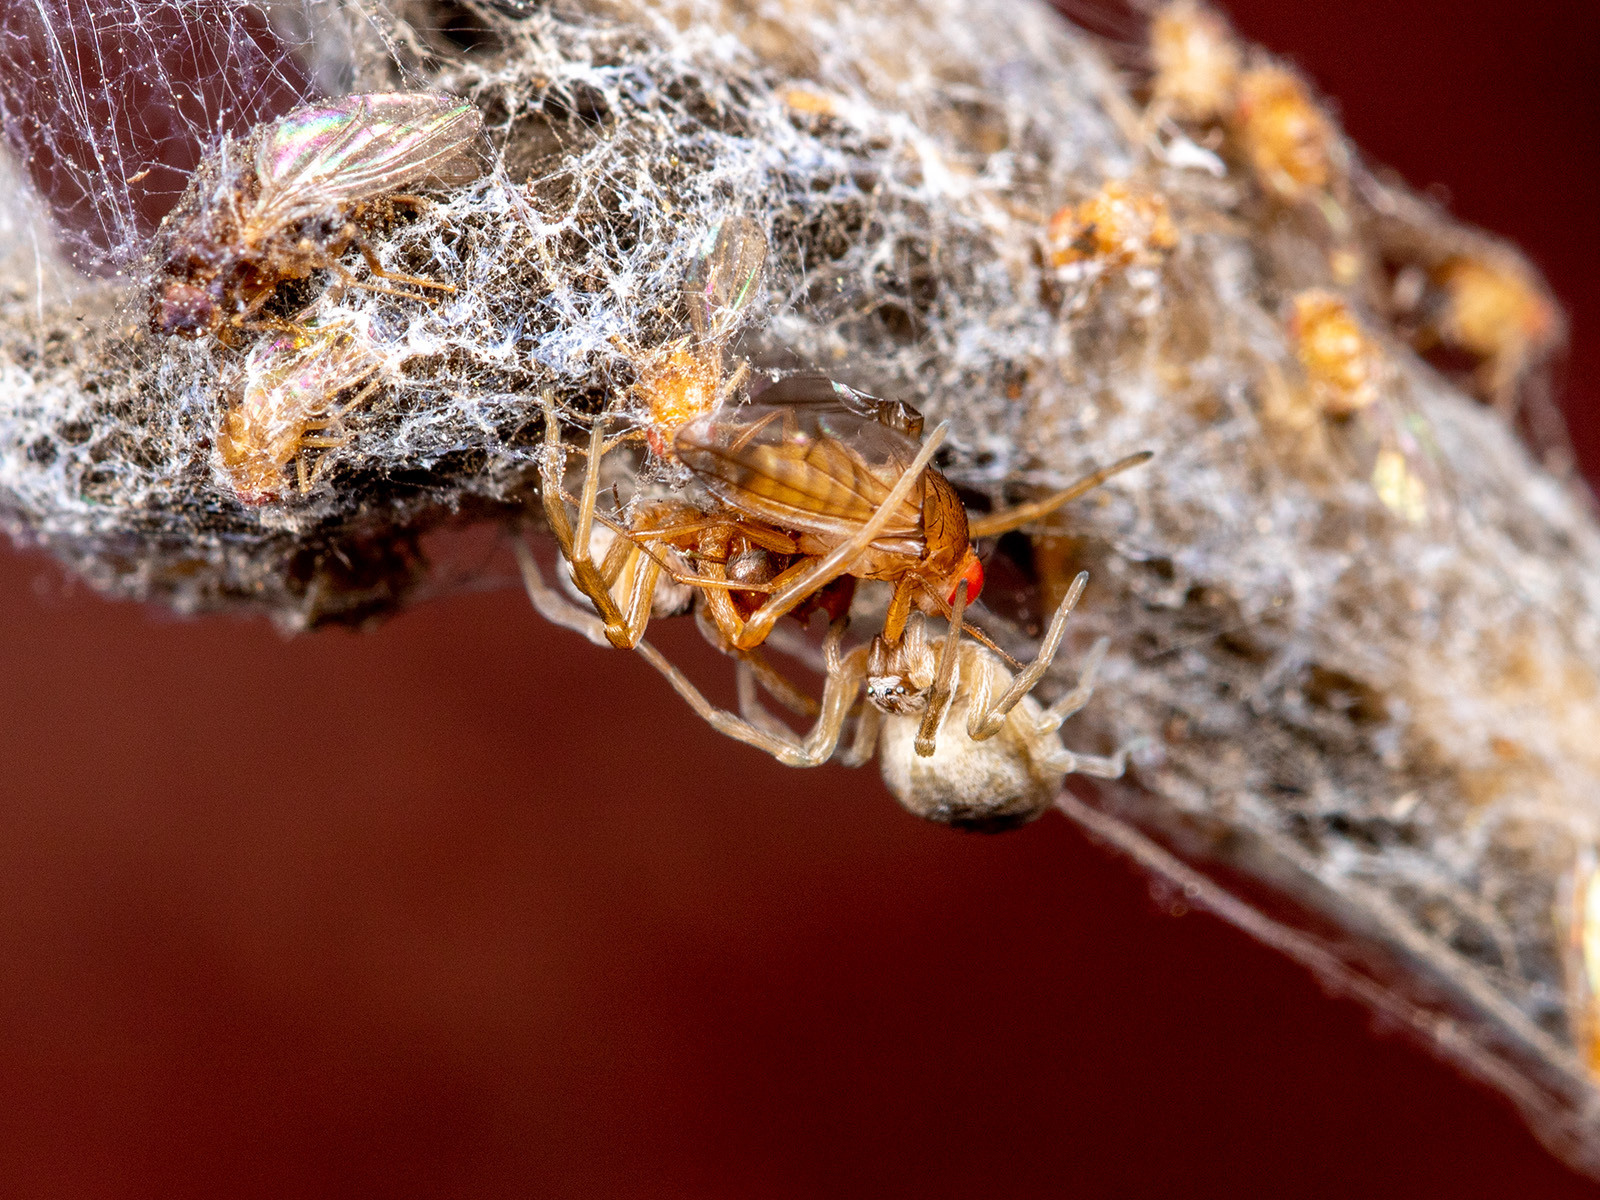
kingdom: Animalia
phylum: Arthropoda
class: Arachnida
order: Araneae
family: Dictynidae
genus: Dictynomorpha
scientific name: Dictynomorpha strandi
